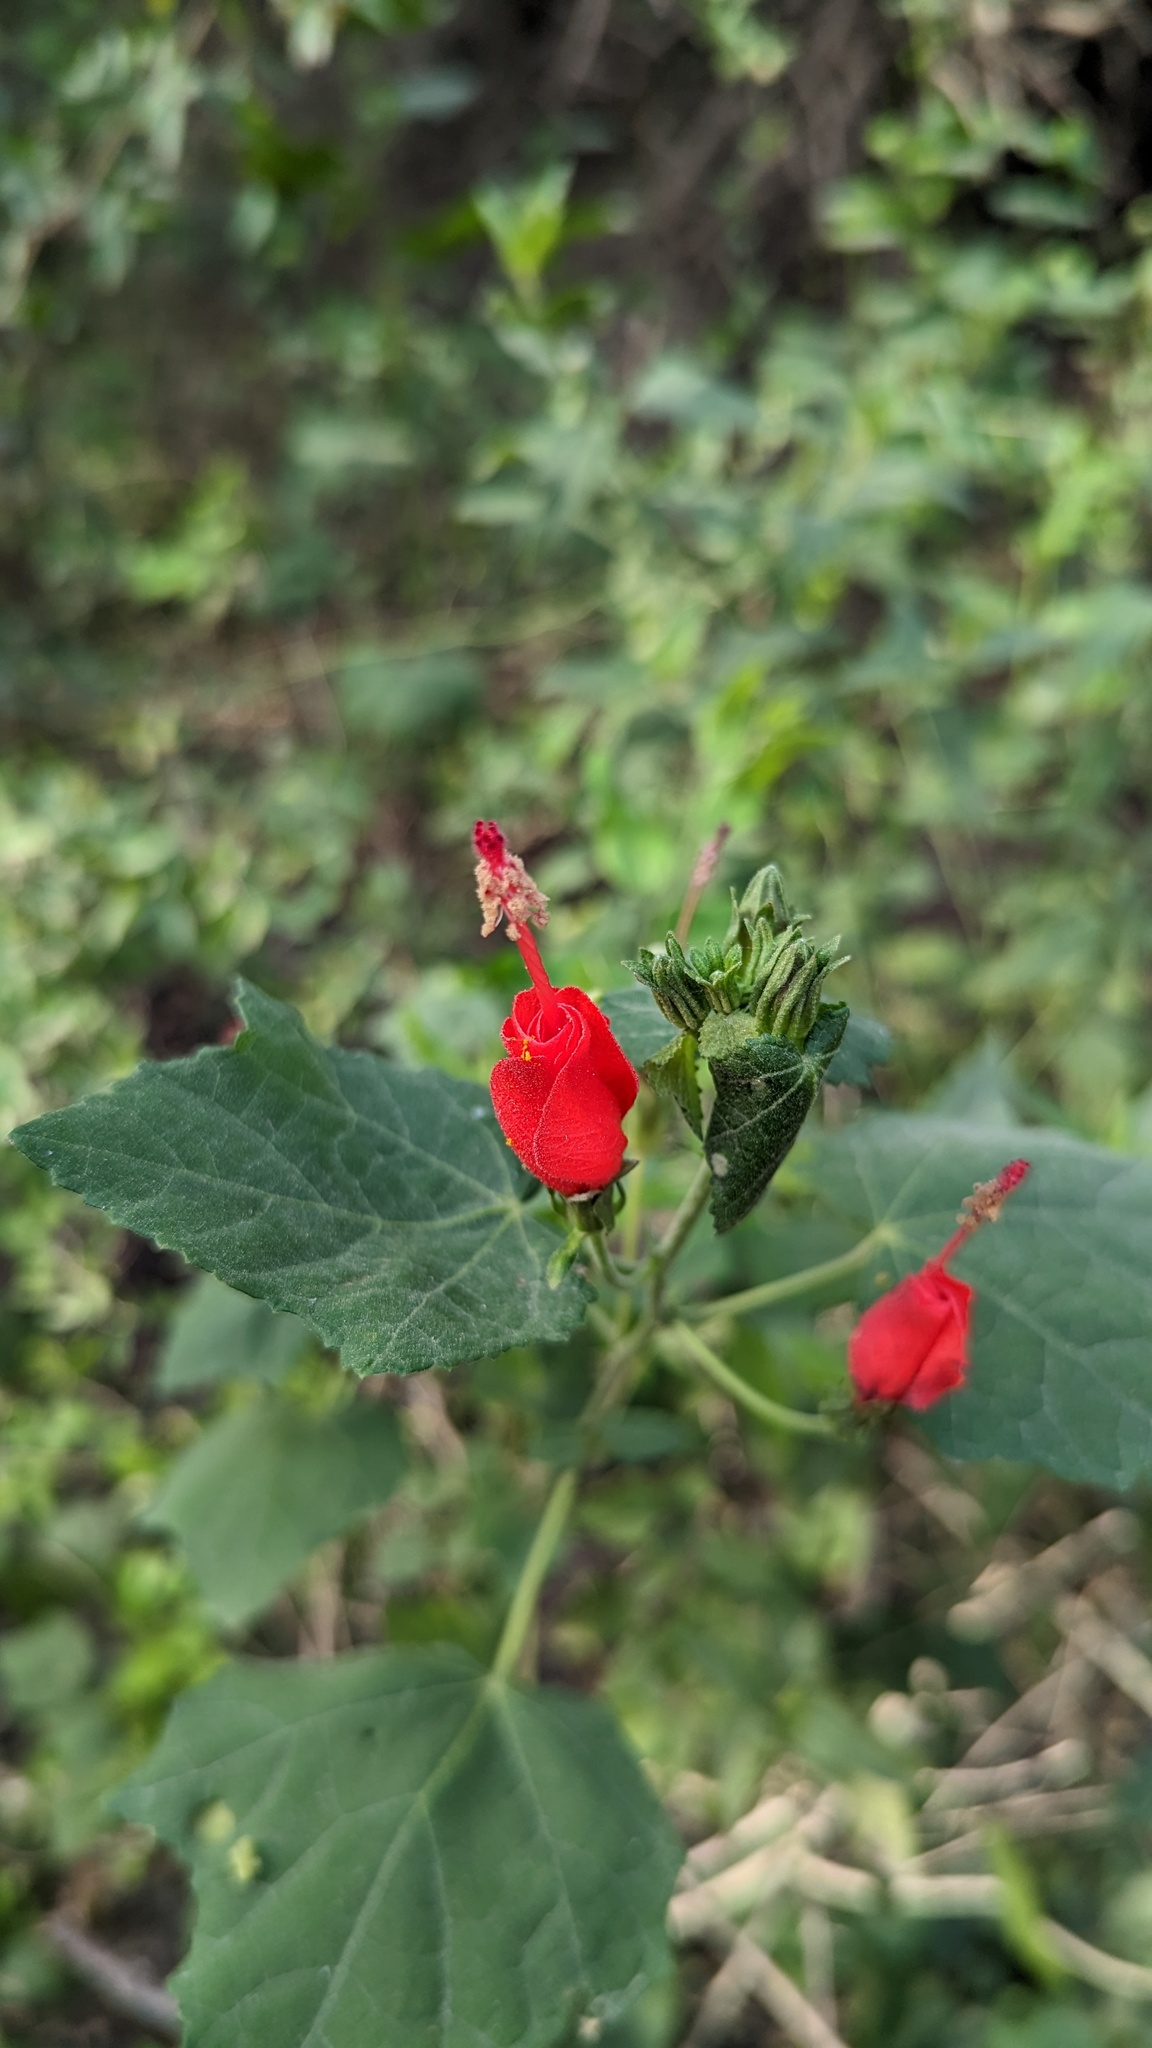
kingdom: Plantae
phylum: Tracheophyta
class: Magnoliopsida
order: Malvales
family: Malvaceae
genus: Malvaviscus
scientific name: Malvaviscus arboreus
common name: Wax mallow
